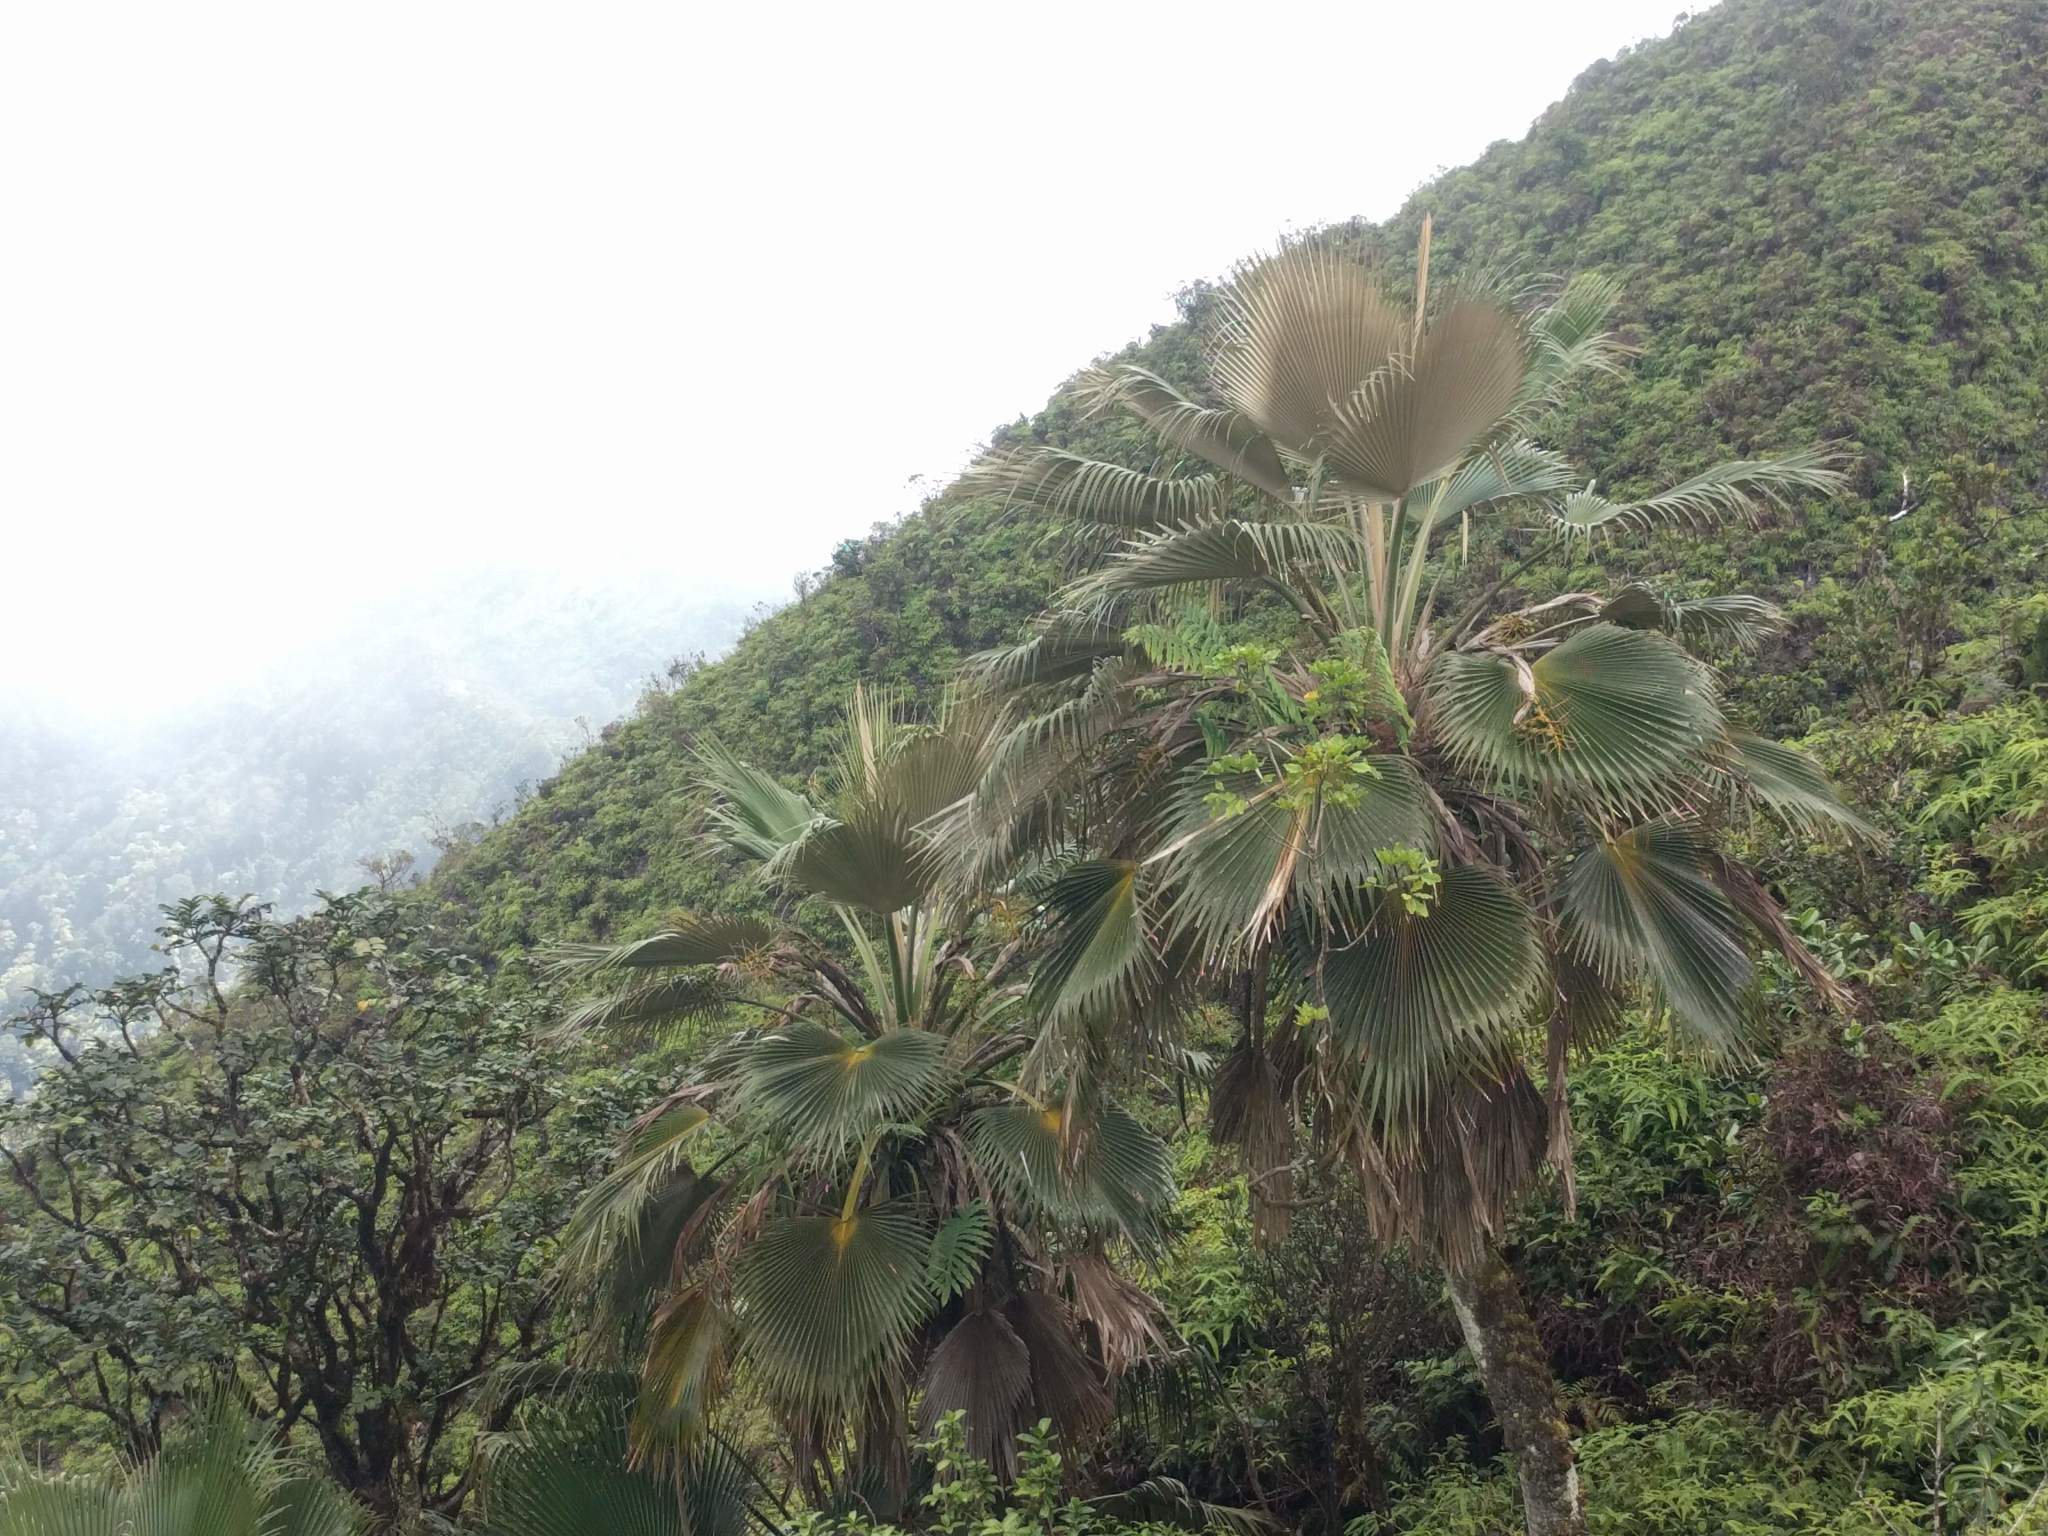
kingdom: Plantae
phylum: Tracheophyta
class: Liliopsida
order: Arecales
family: Arecaceae
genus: Pritchardia
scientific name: Pritchardia martii
